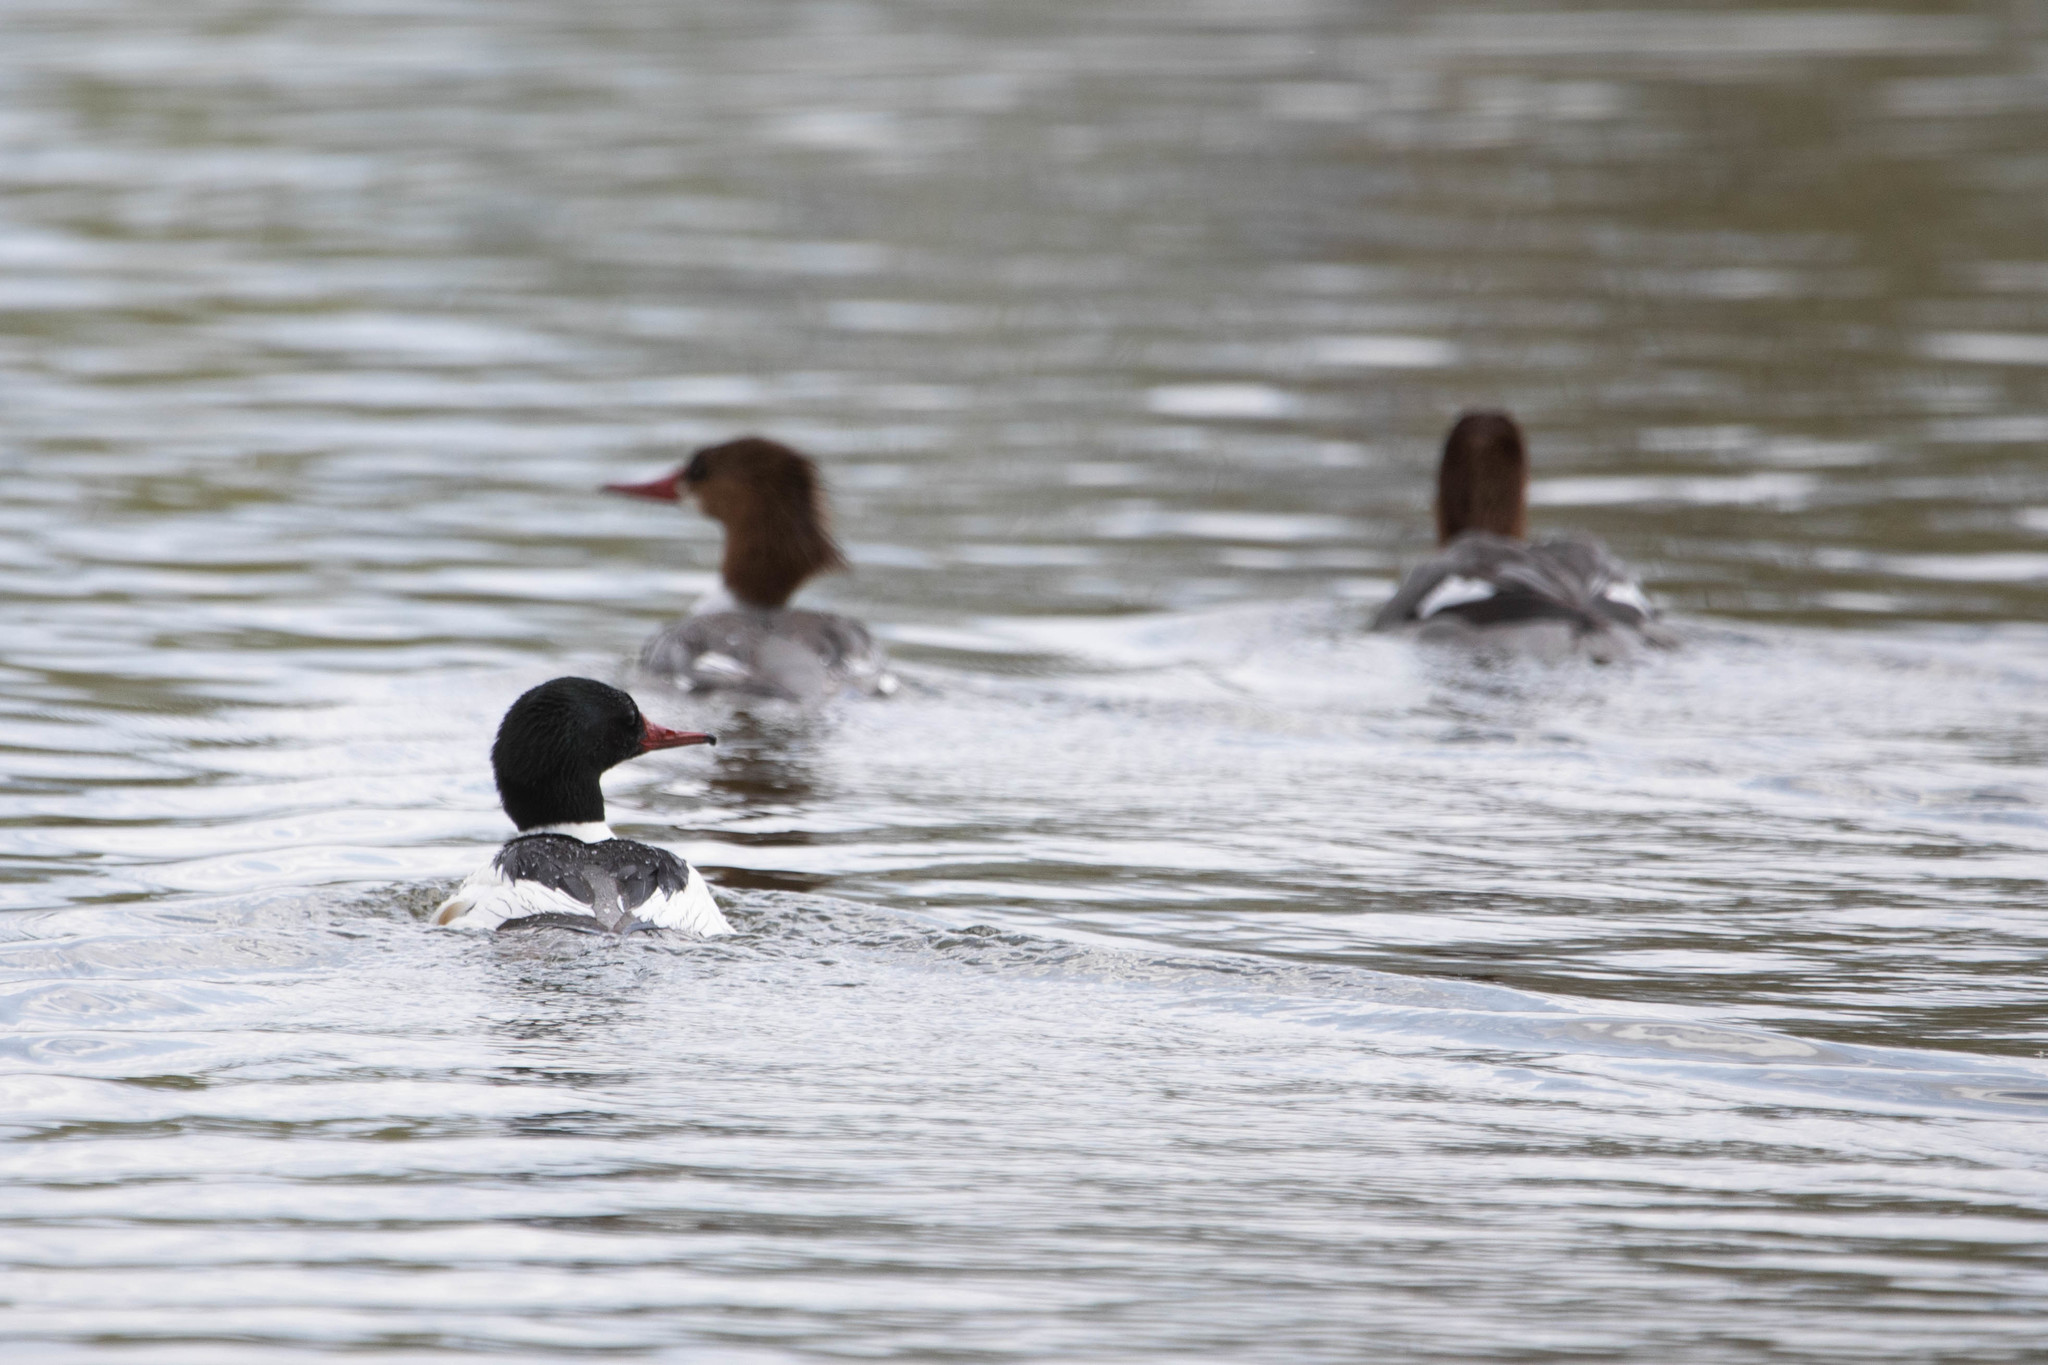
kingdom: Animalia
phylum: Chordata
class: Aves
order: Anseriformes
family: Anatidae
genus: Mergus
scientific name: Mergus merganser
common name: Common merganser
